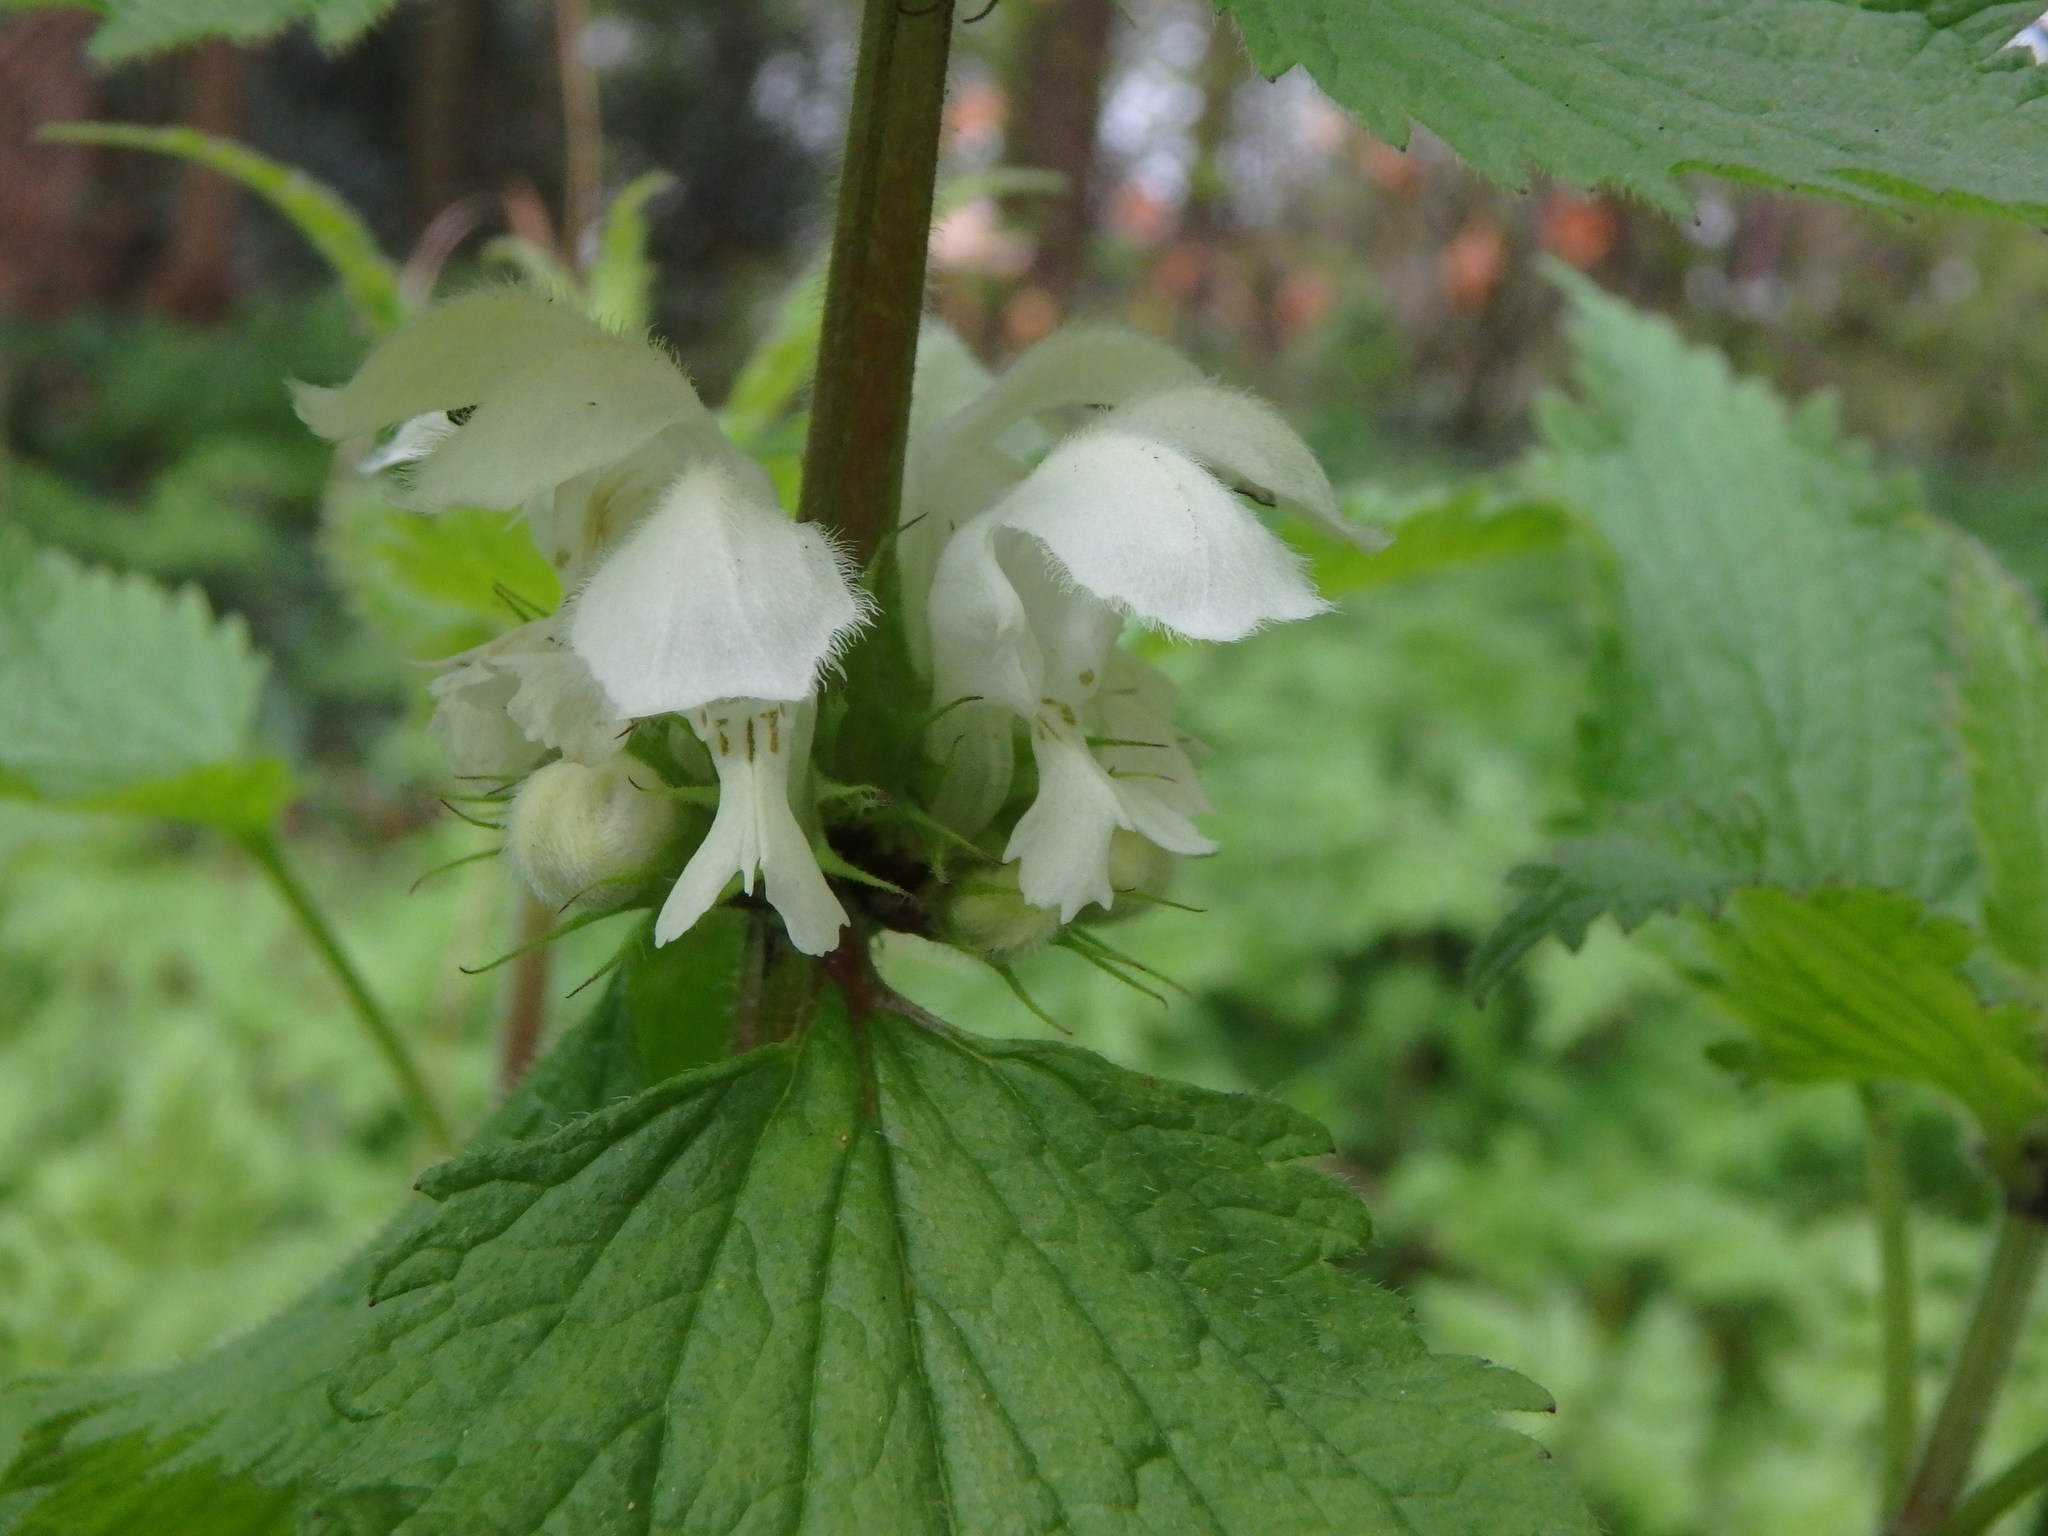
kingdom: Plantae
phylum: Tracheophyta
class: Magnoliopsida
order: Lamiales
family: Lamiaceae
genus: Lamium
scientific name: Lamium album
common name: White dead-nettle
